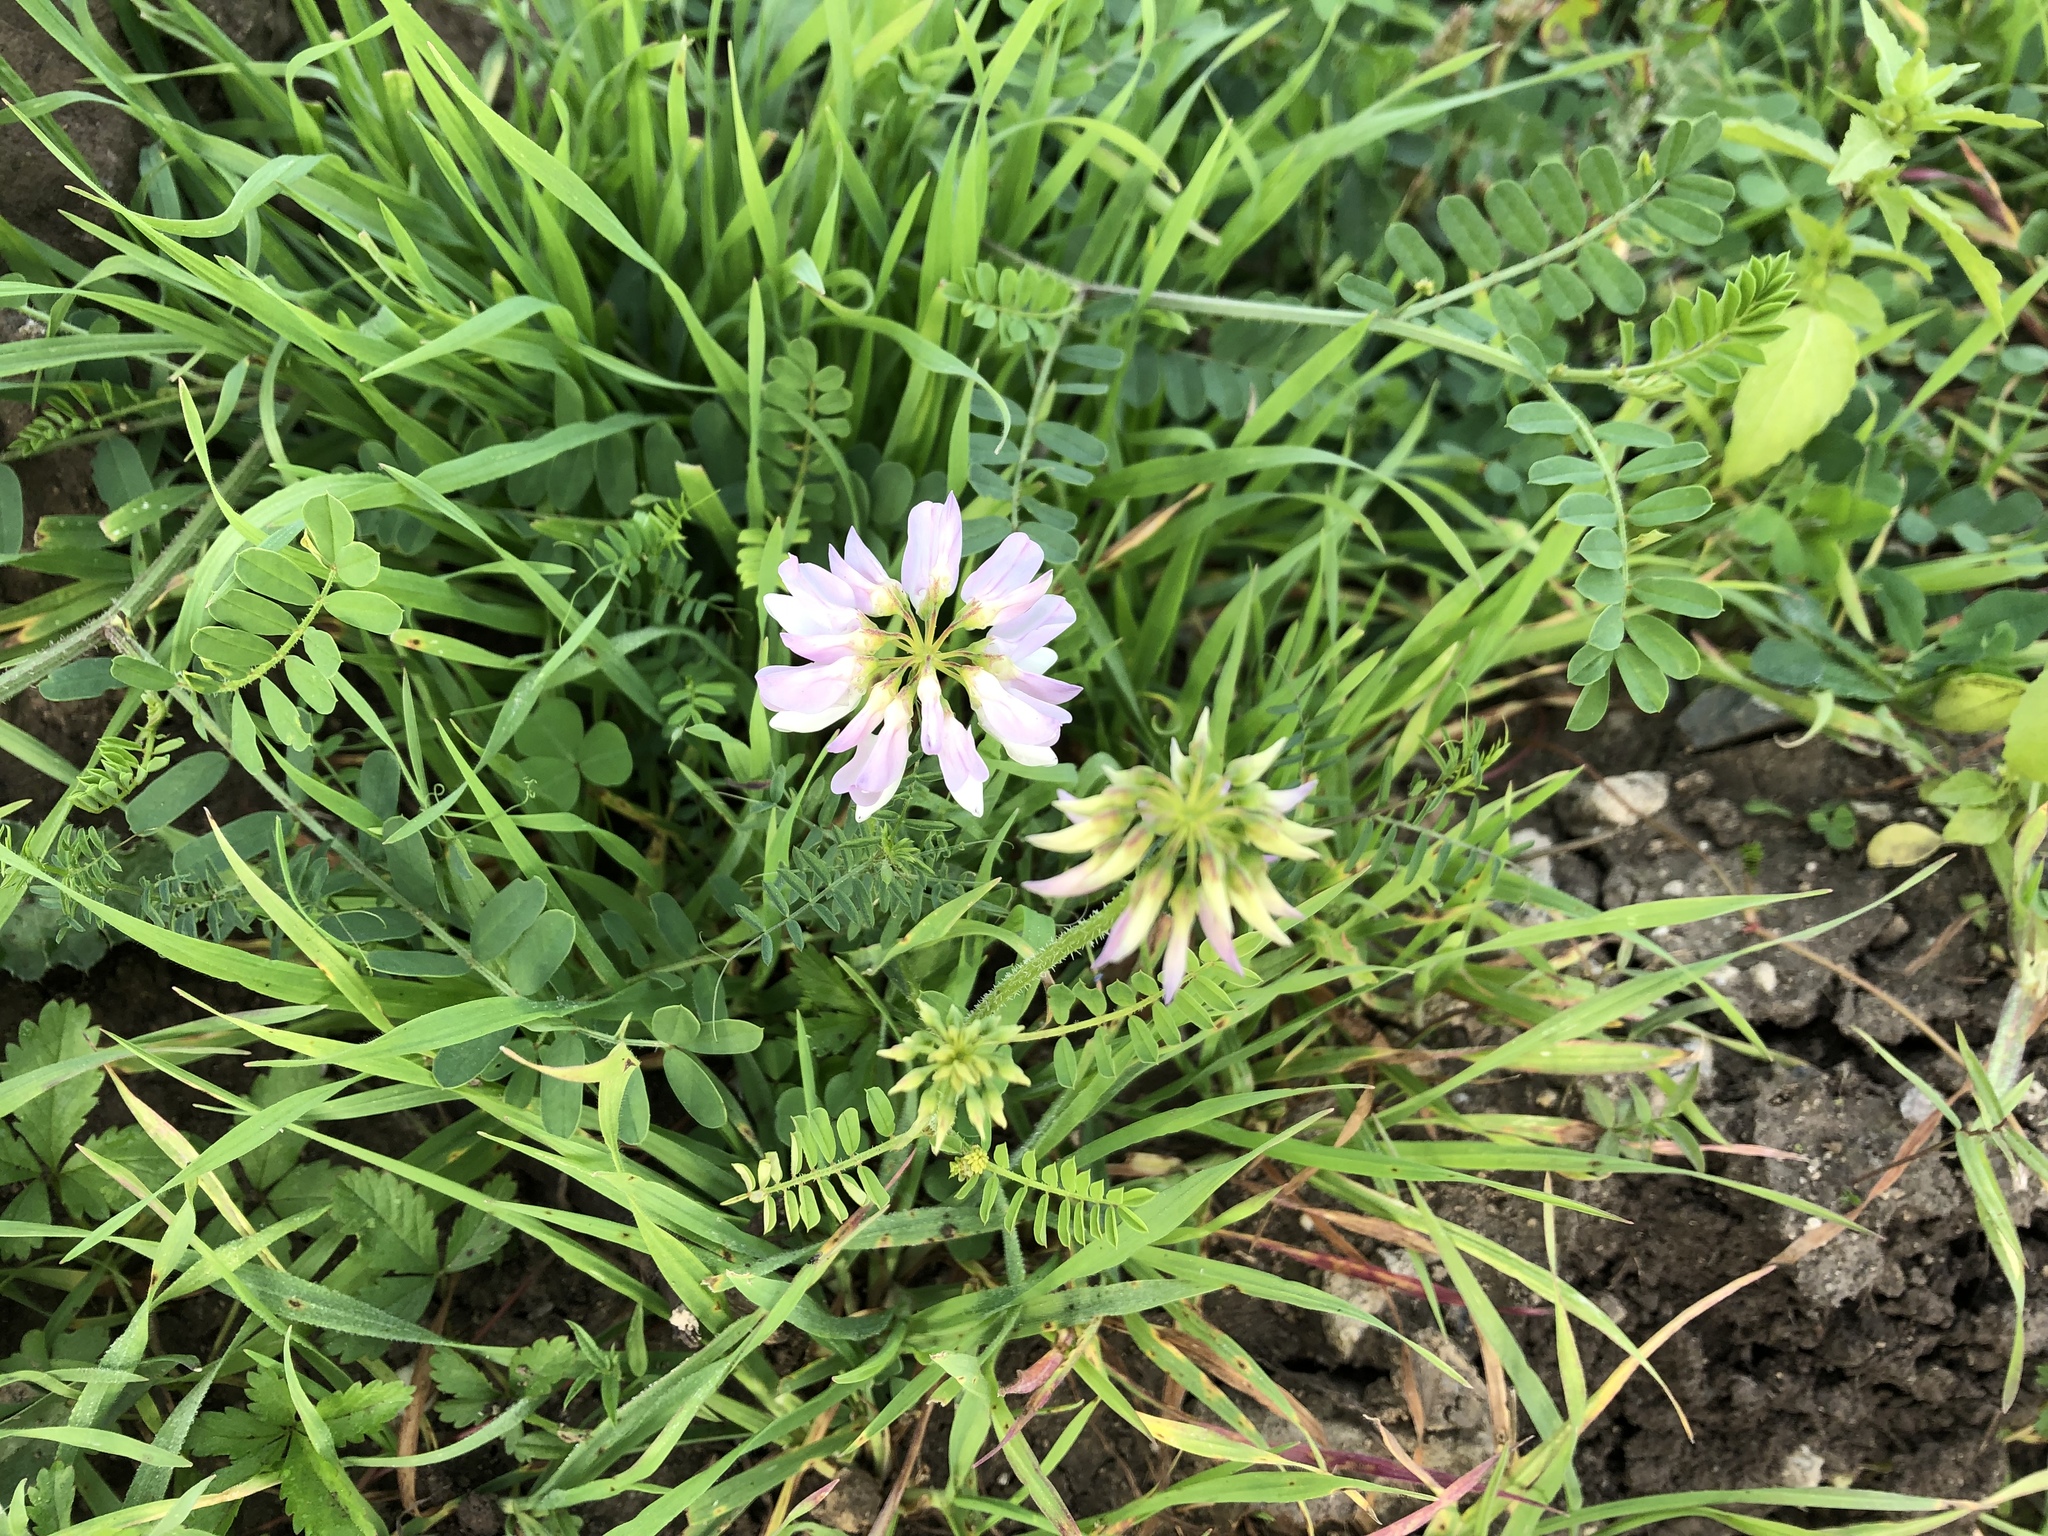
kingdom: Plantae
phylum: Tracheophyta
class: Magnoliopsida
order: Fabales
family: Fabaceae
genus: Coronilla
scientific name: Coronilla varia
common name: Crownvetch
